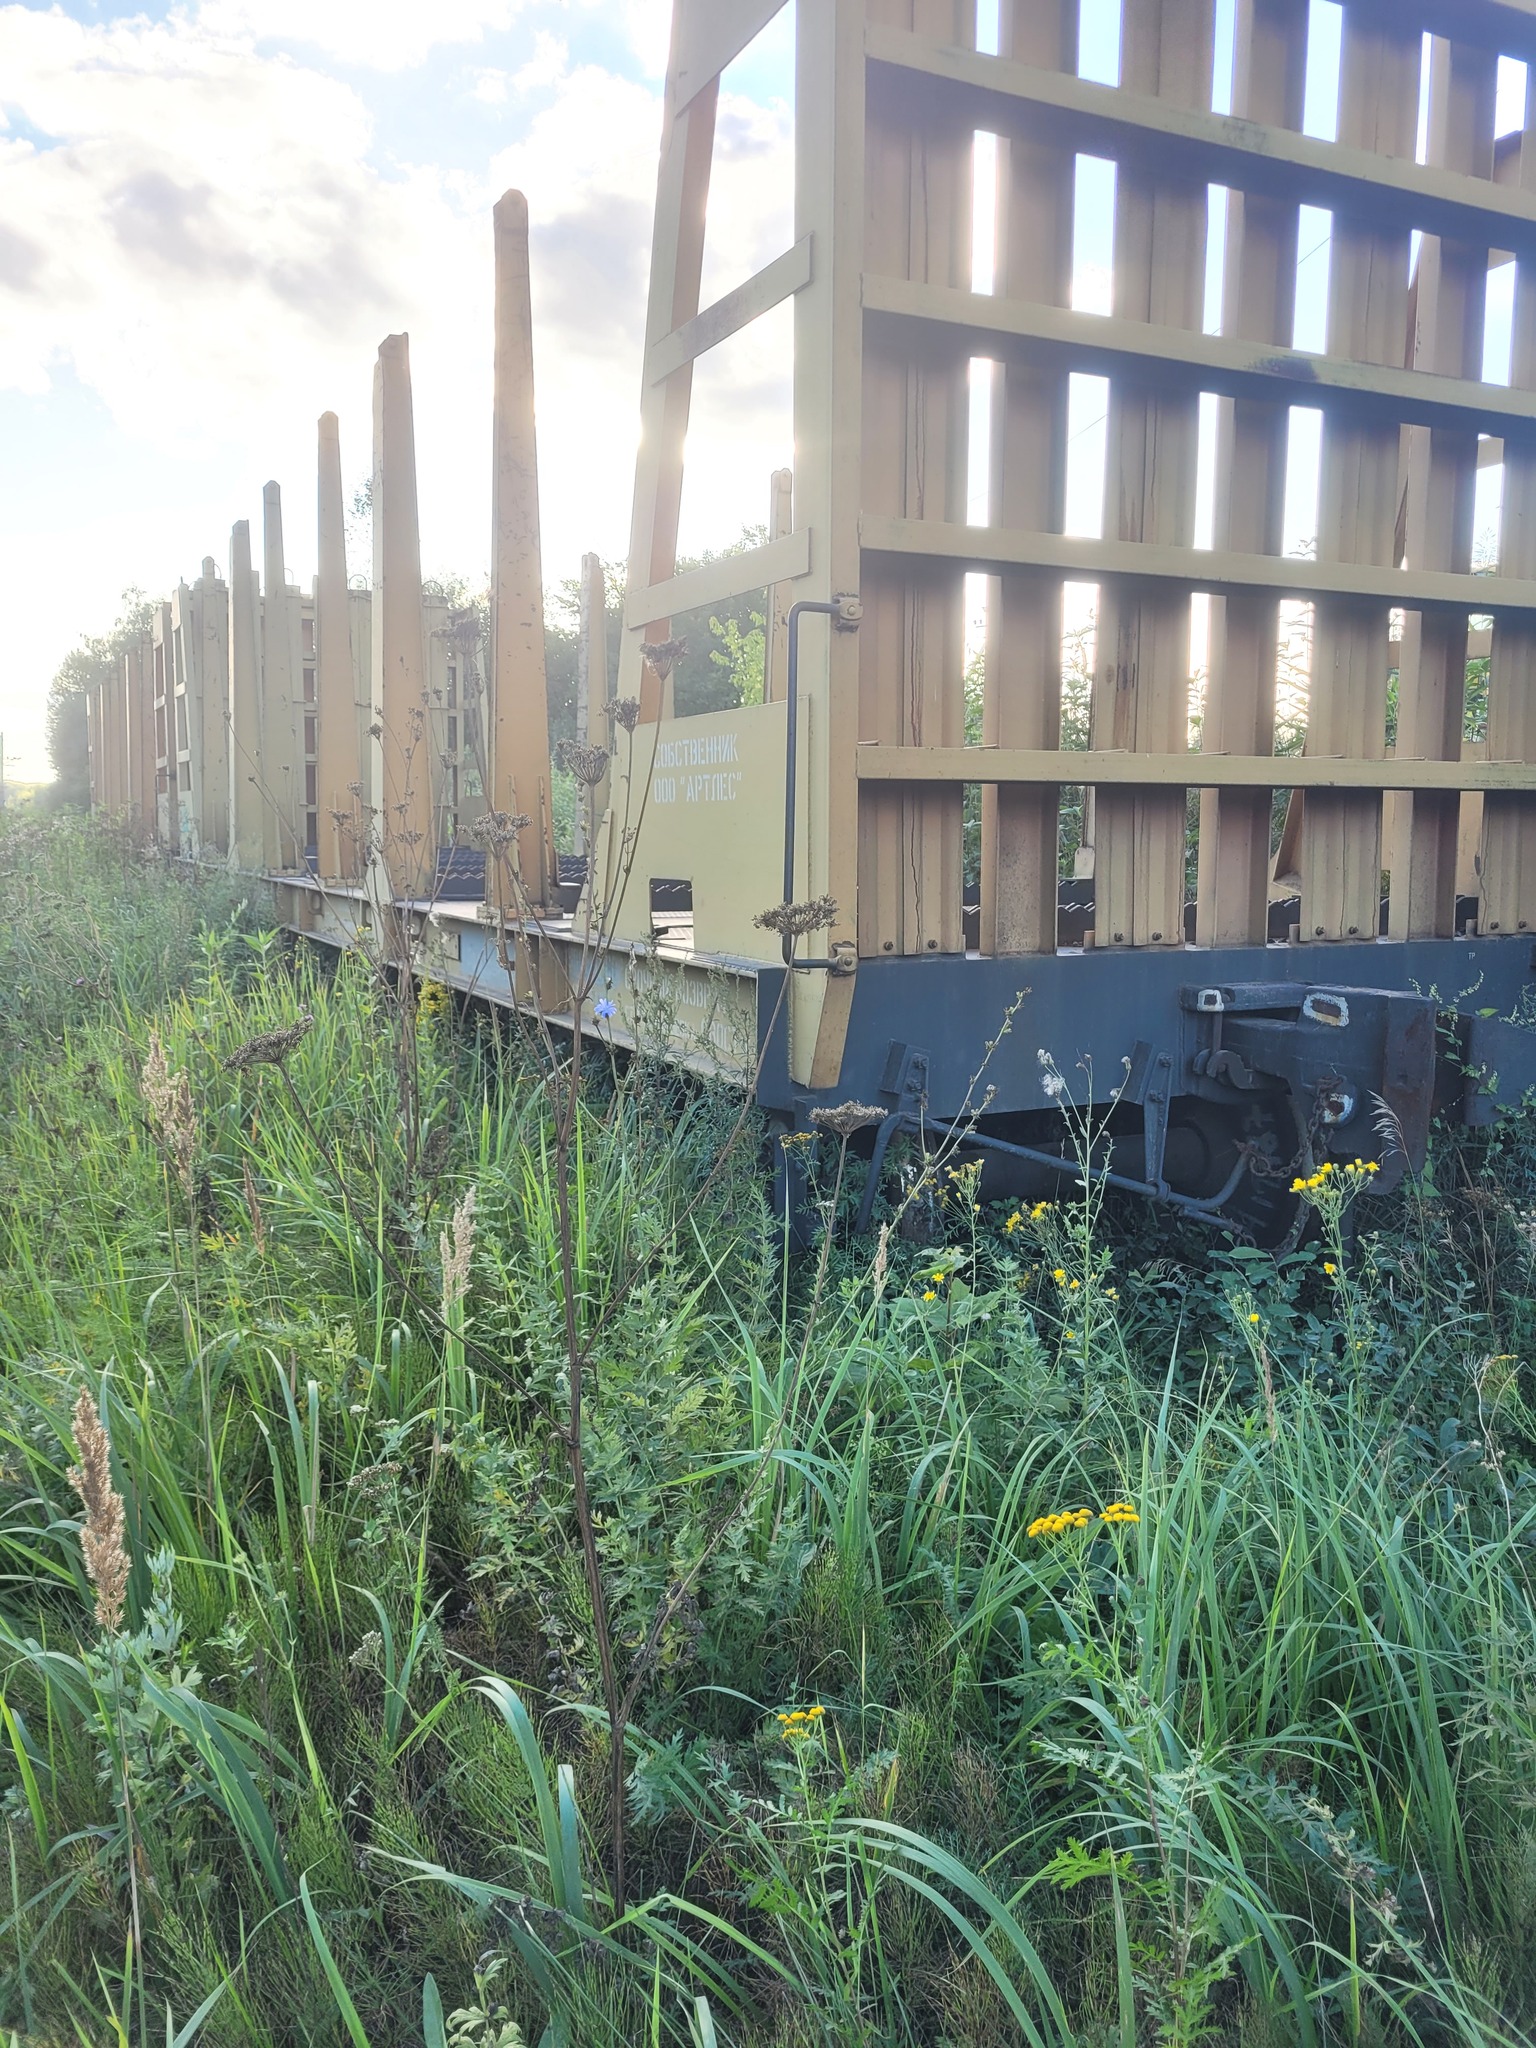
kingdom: Plantae
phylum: Tracheophyta
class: Magnoliopsida
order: Apiales
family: Apiaceae
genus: Seseli
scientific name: Seseli libanotis
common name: Mooncarrot
